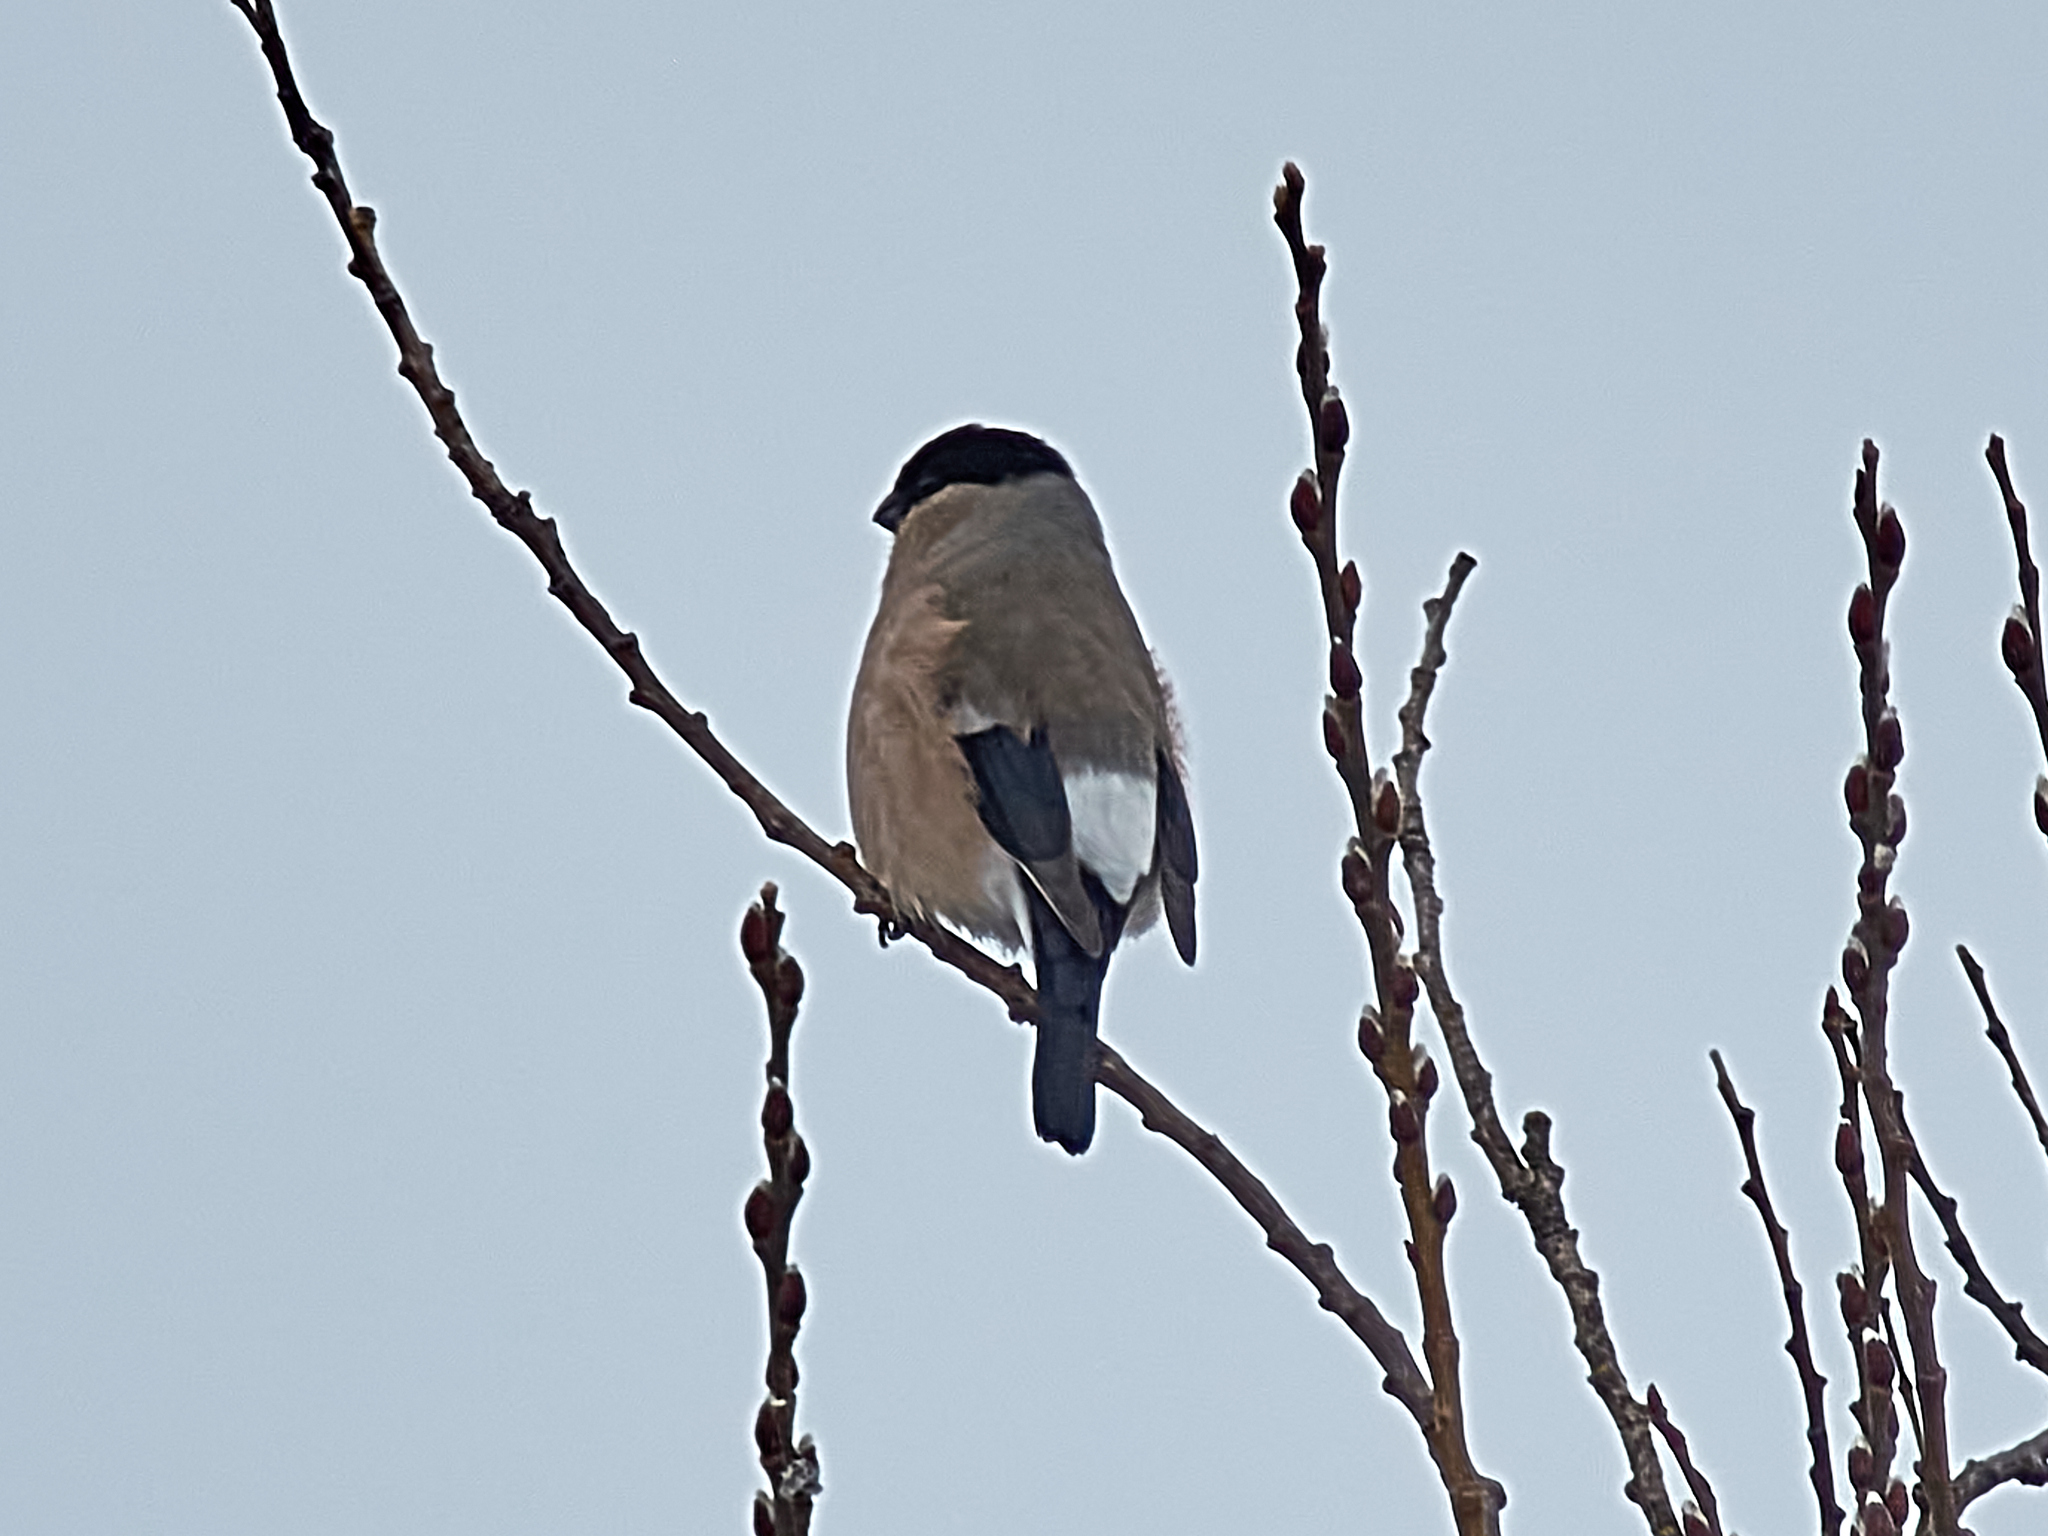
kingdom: Animalia
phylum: Chordata
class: Aves
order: Passeriformes
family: Fringillidae
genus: Pyrrhula
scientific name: Pyrrhula pyrrhula
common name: Eurasian bullfinch
